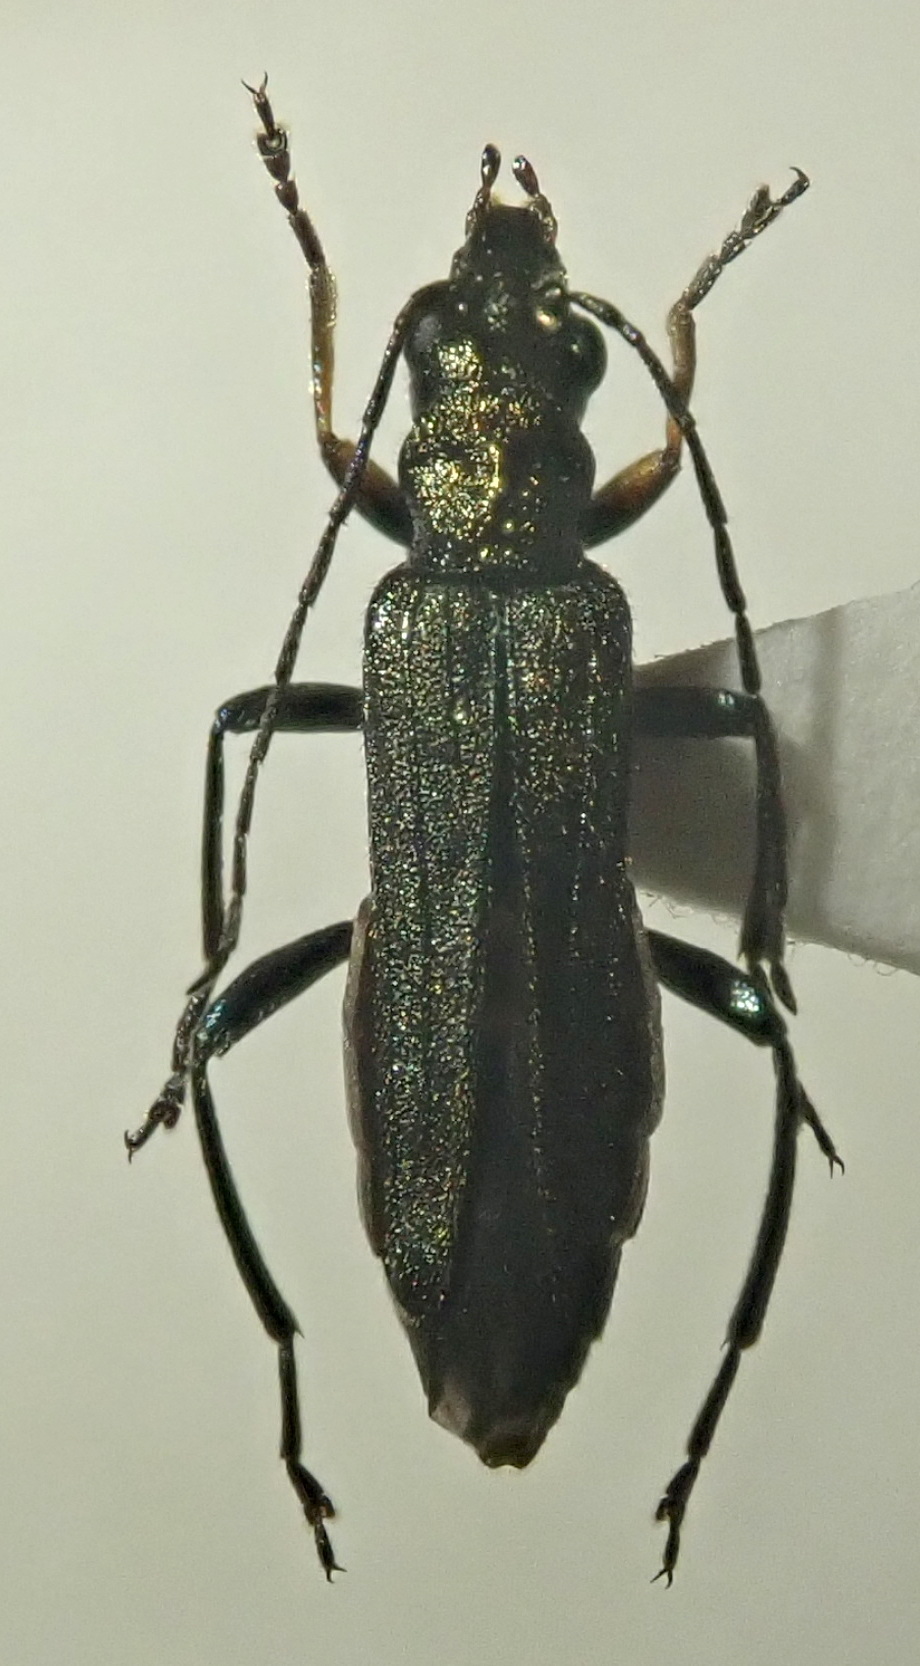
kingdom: Animalia
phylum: Arthropoda
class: Insecta
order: Coleoptera
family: Oedemeridae
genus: Oedemera
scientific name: Oedemera flavipes
